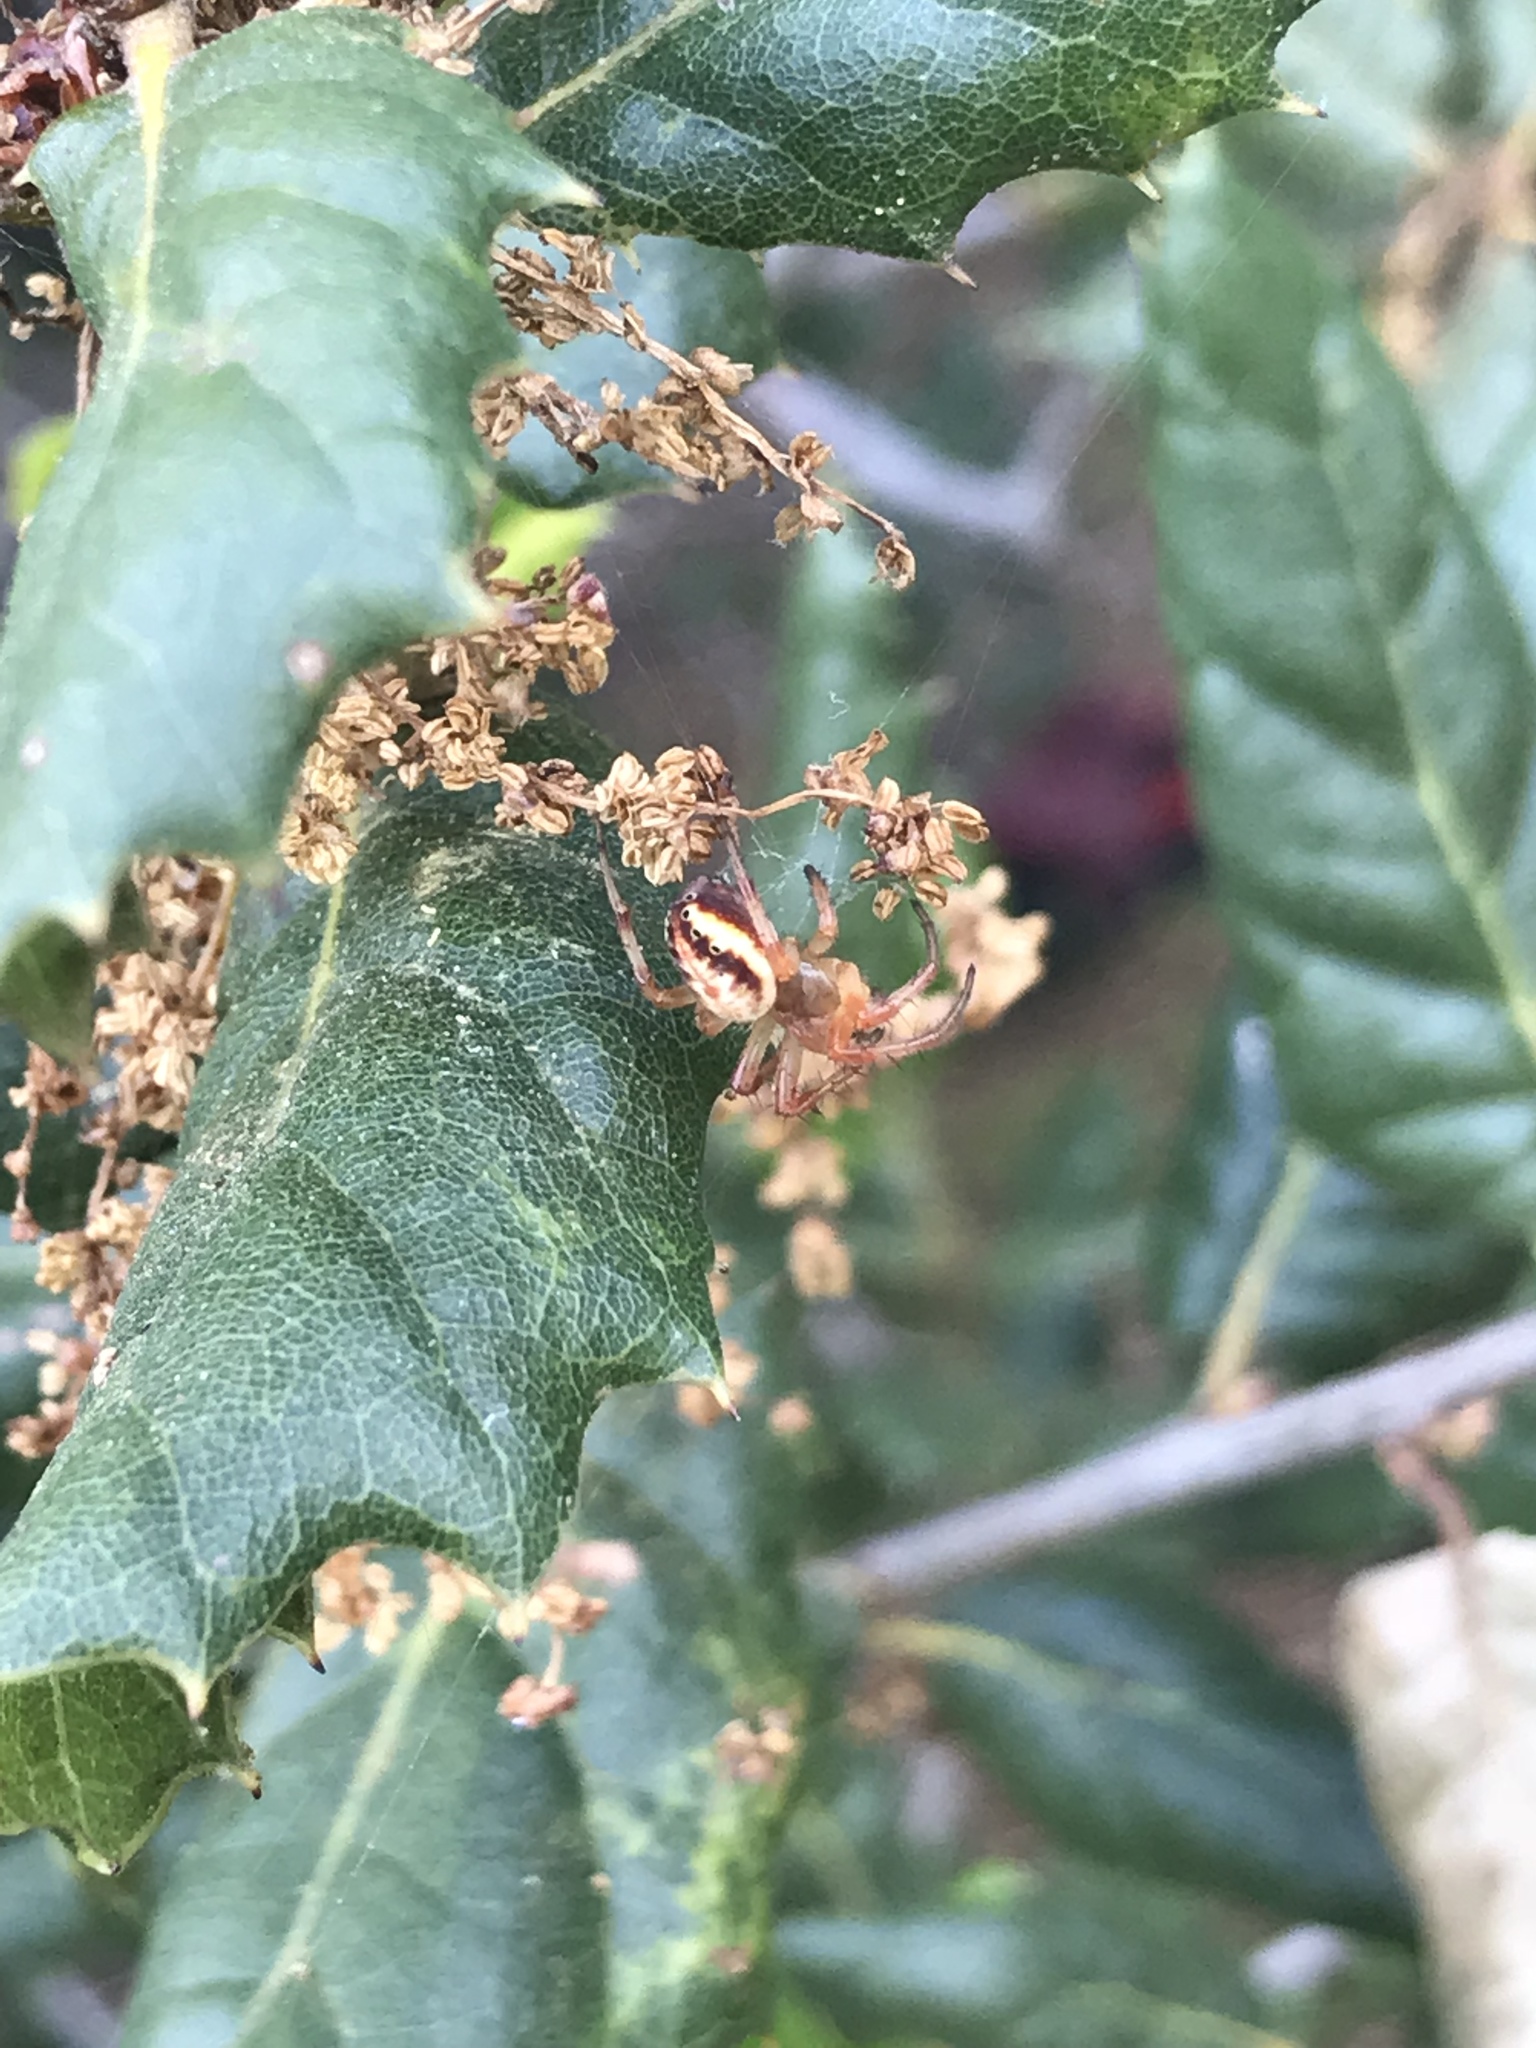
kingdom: Animalia
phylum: Arthropoda
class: Arachnida
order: Araneae
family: Araneidae
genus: Araniella
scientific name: Araniella displicata
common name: Sixspotted orb weaver
